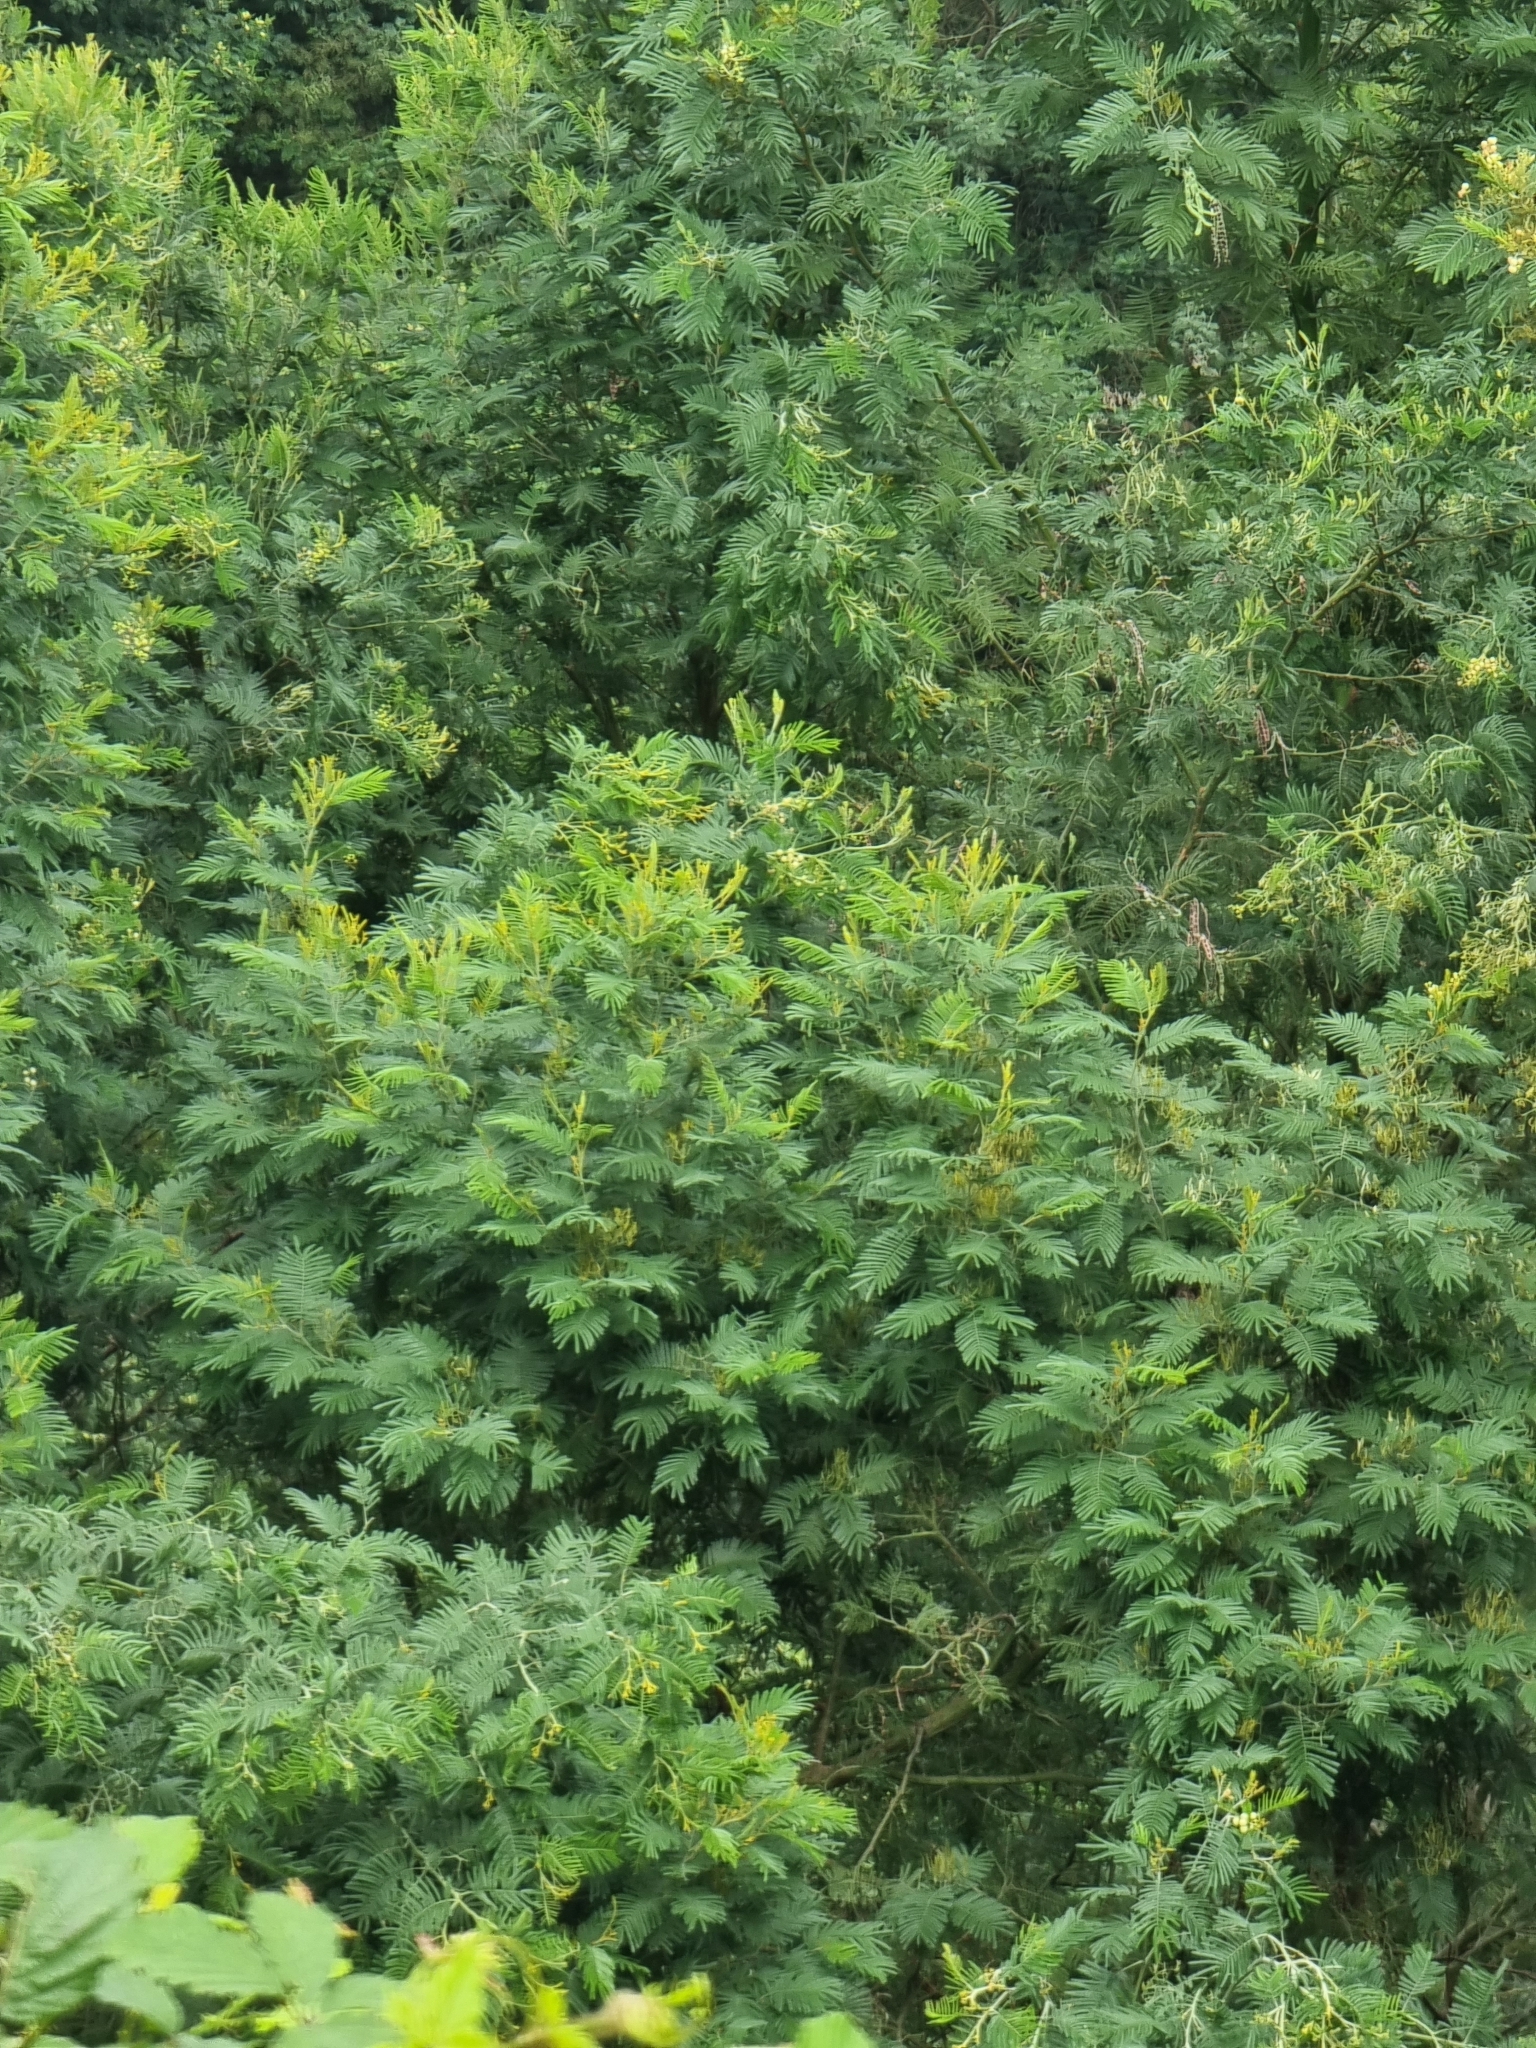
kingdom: Plantae
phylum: Tracheophyta
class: Magnoliopsida
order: Fabales
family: Fabaceae
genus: Acacia
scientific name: Acacia mearnsii
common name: Black wattle
